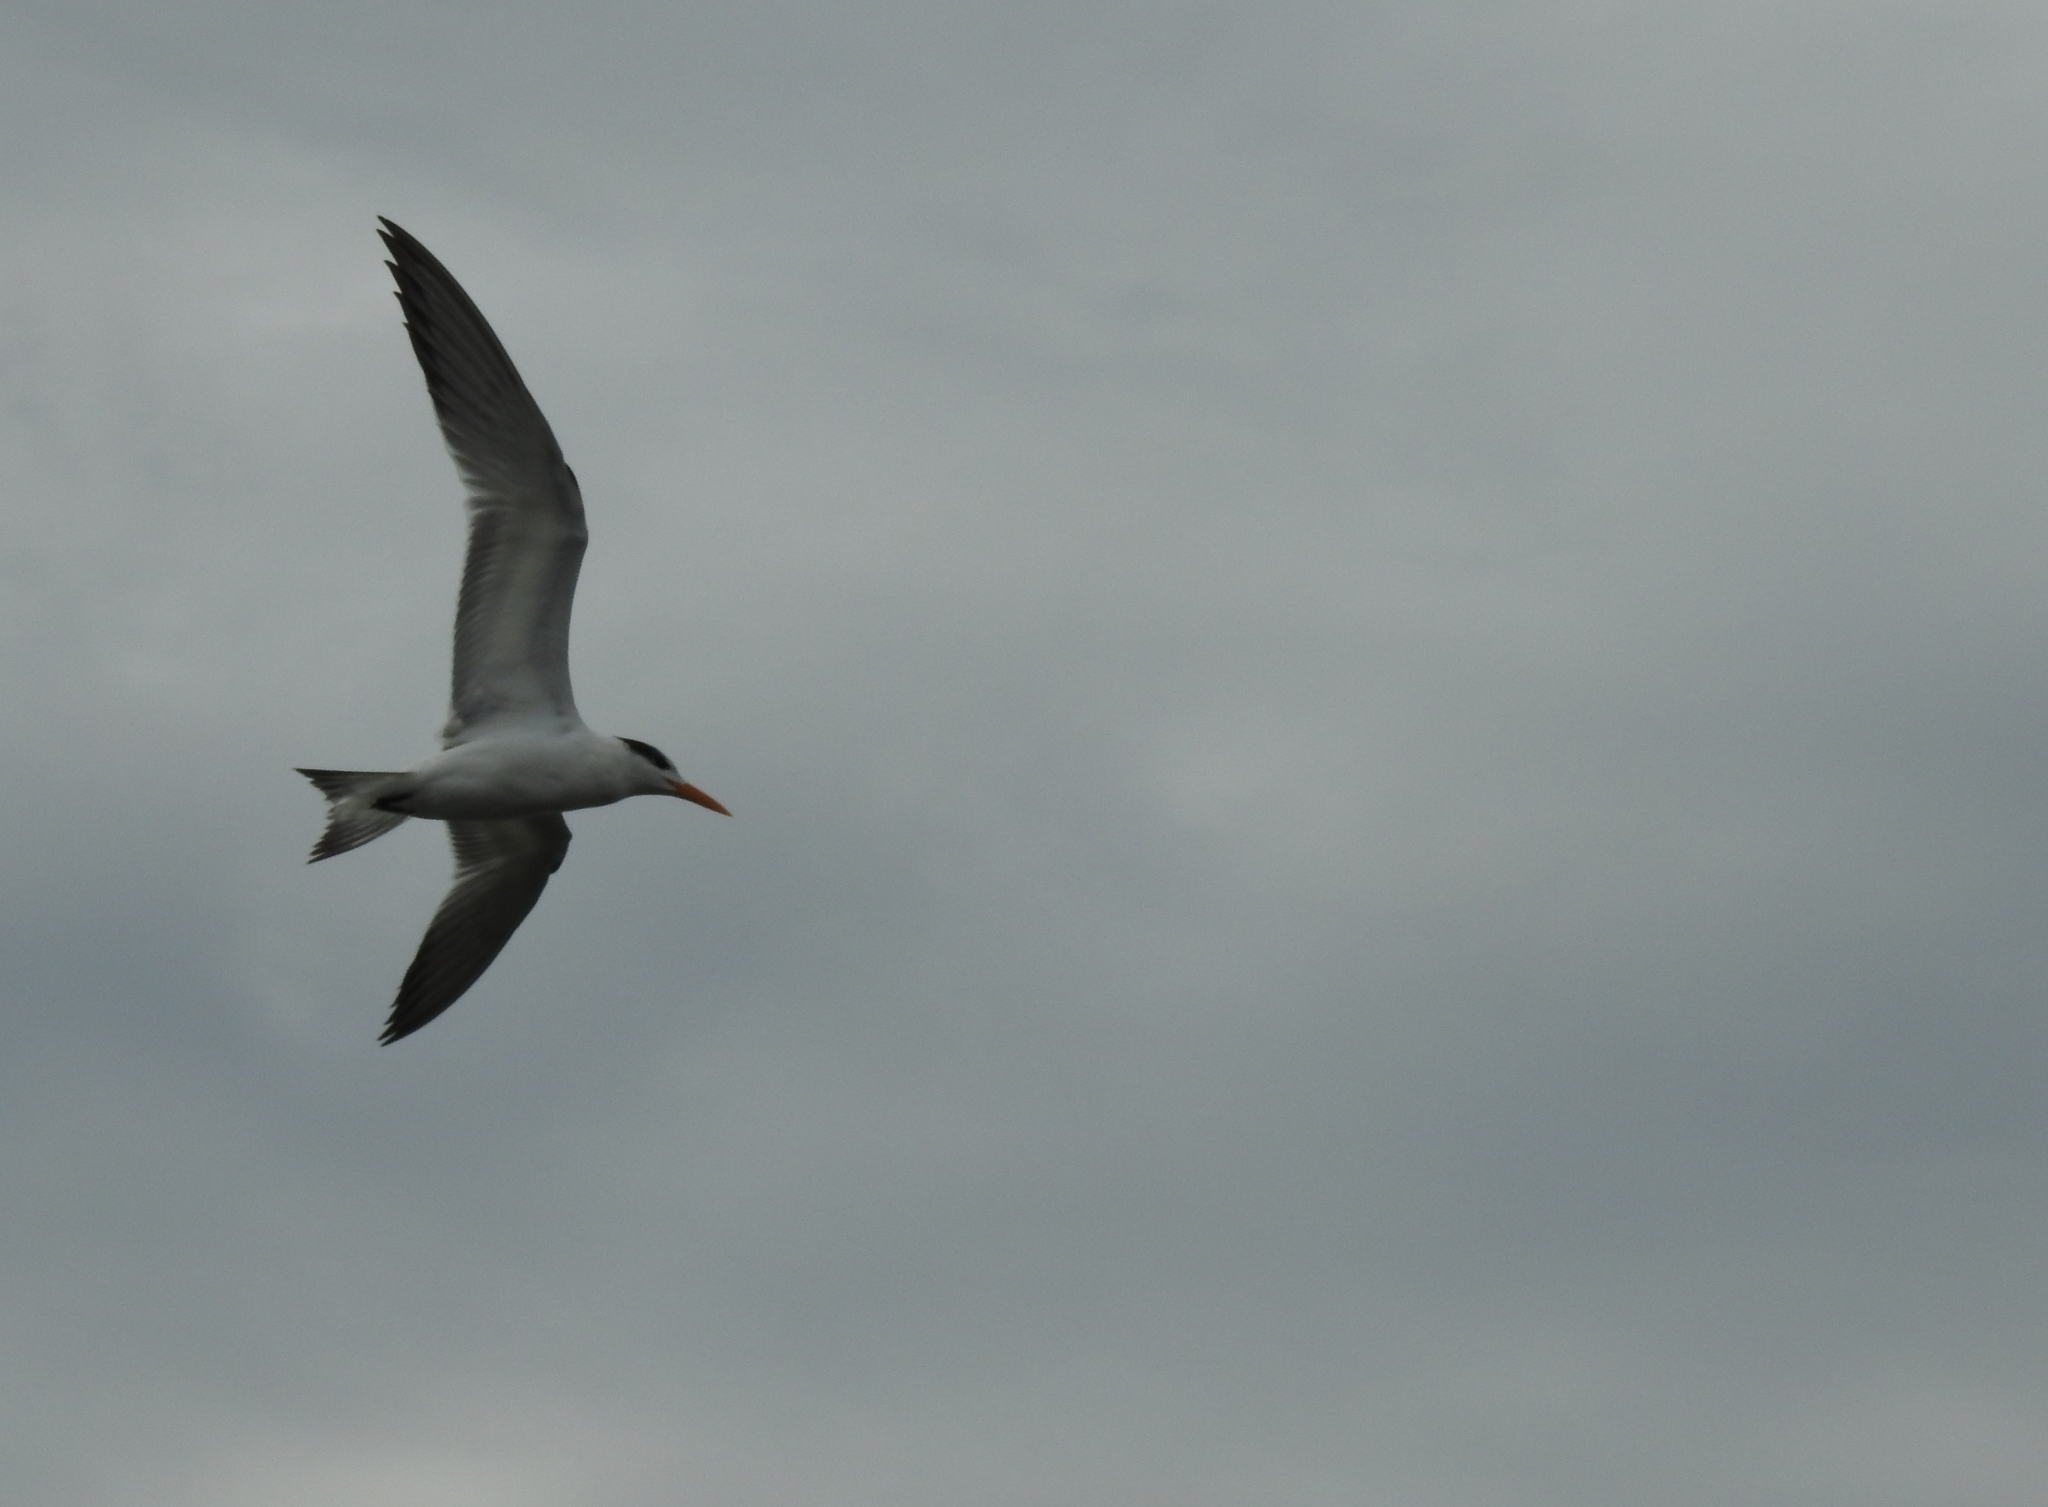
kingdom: Animalia
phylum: Chordata
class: Aves
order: Charadriiformes
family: Laridae
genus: Thalasseus
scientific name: Thalasseus maximus
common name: Royal tern
